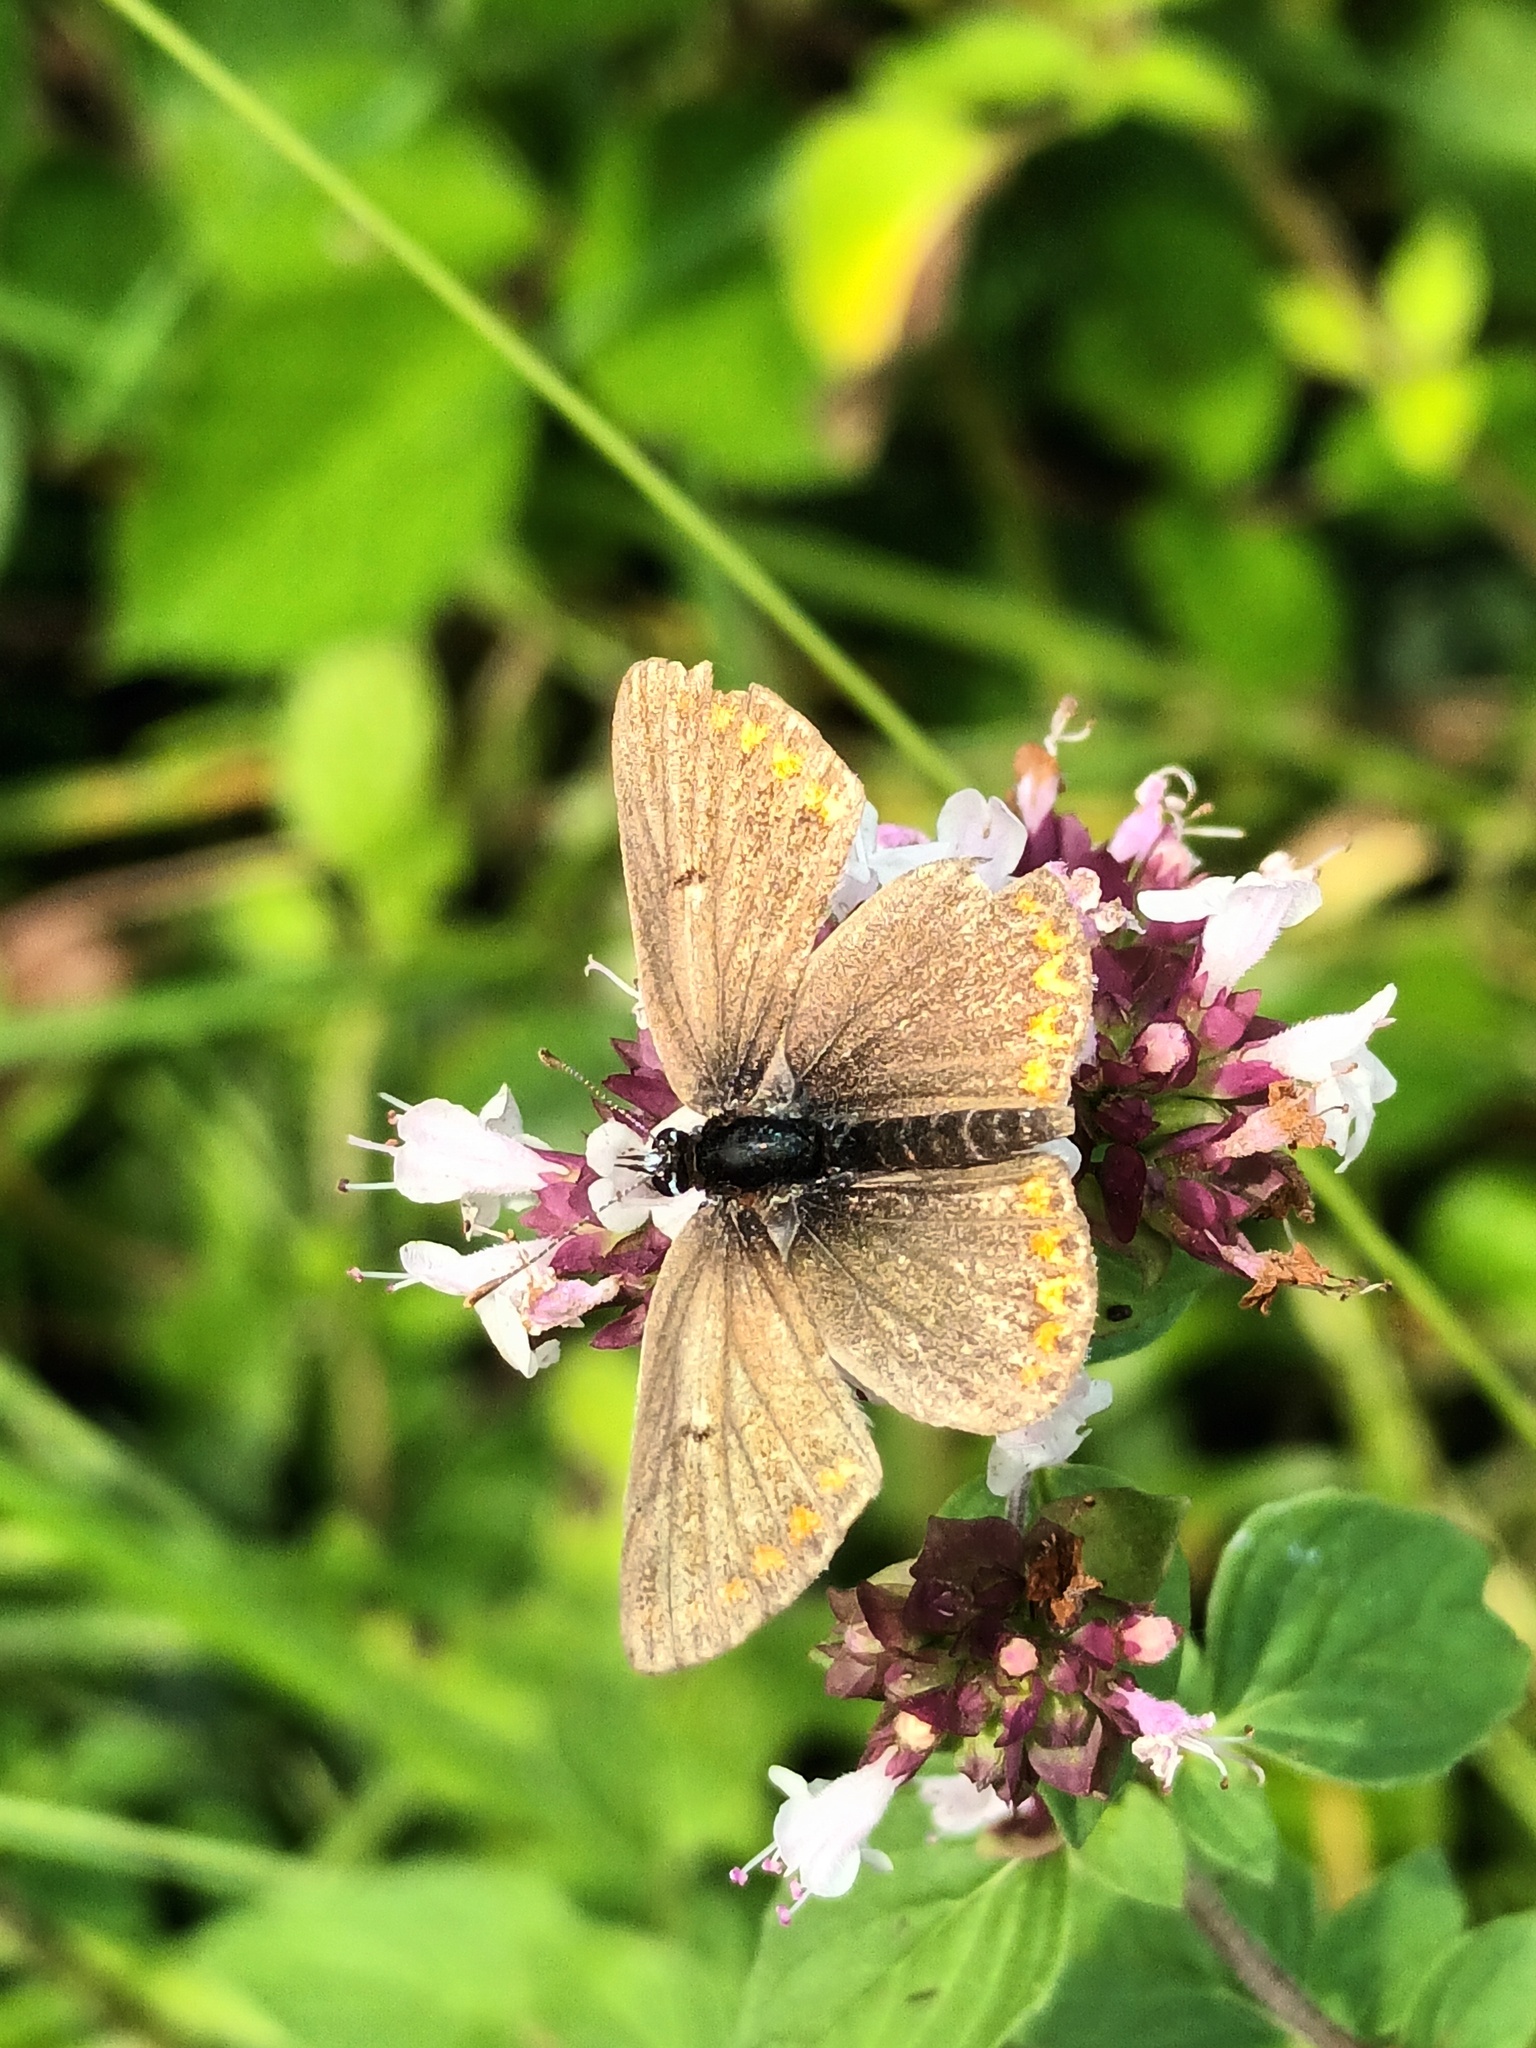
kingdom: Animalia
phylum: Arthropoda
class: Insecta
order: Lepidoptera
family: Lycaenidae
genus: Aricia
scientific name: Aricia agestis
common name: Brown argus
